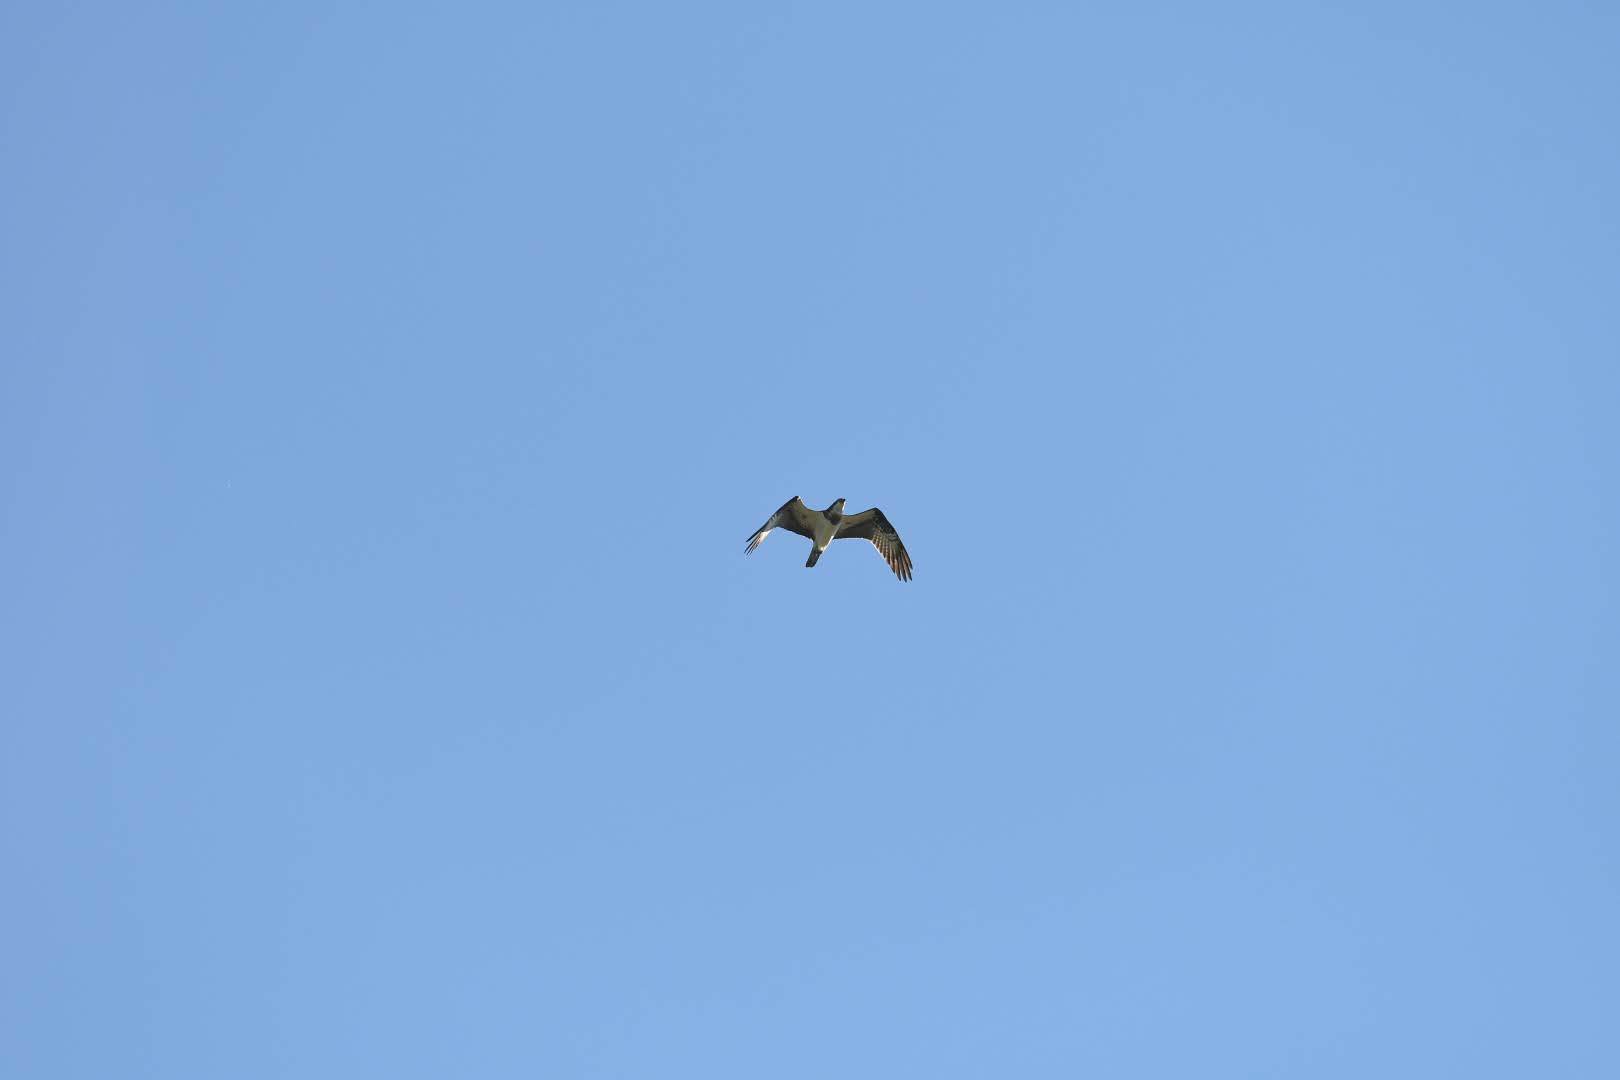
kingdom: Animalia
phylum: Chordata
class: Aves
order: Accipitriformes
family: Pandionidae
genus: Pandion
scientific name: Pandion haliaetus
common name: Osprey
